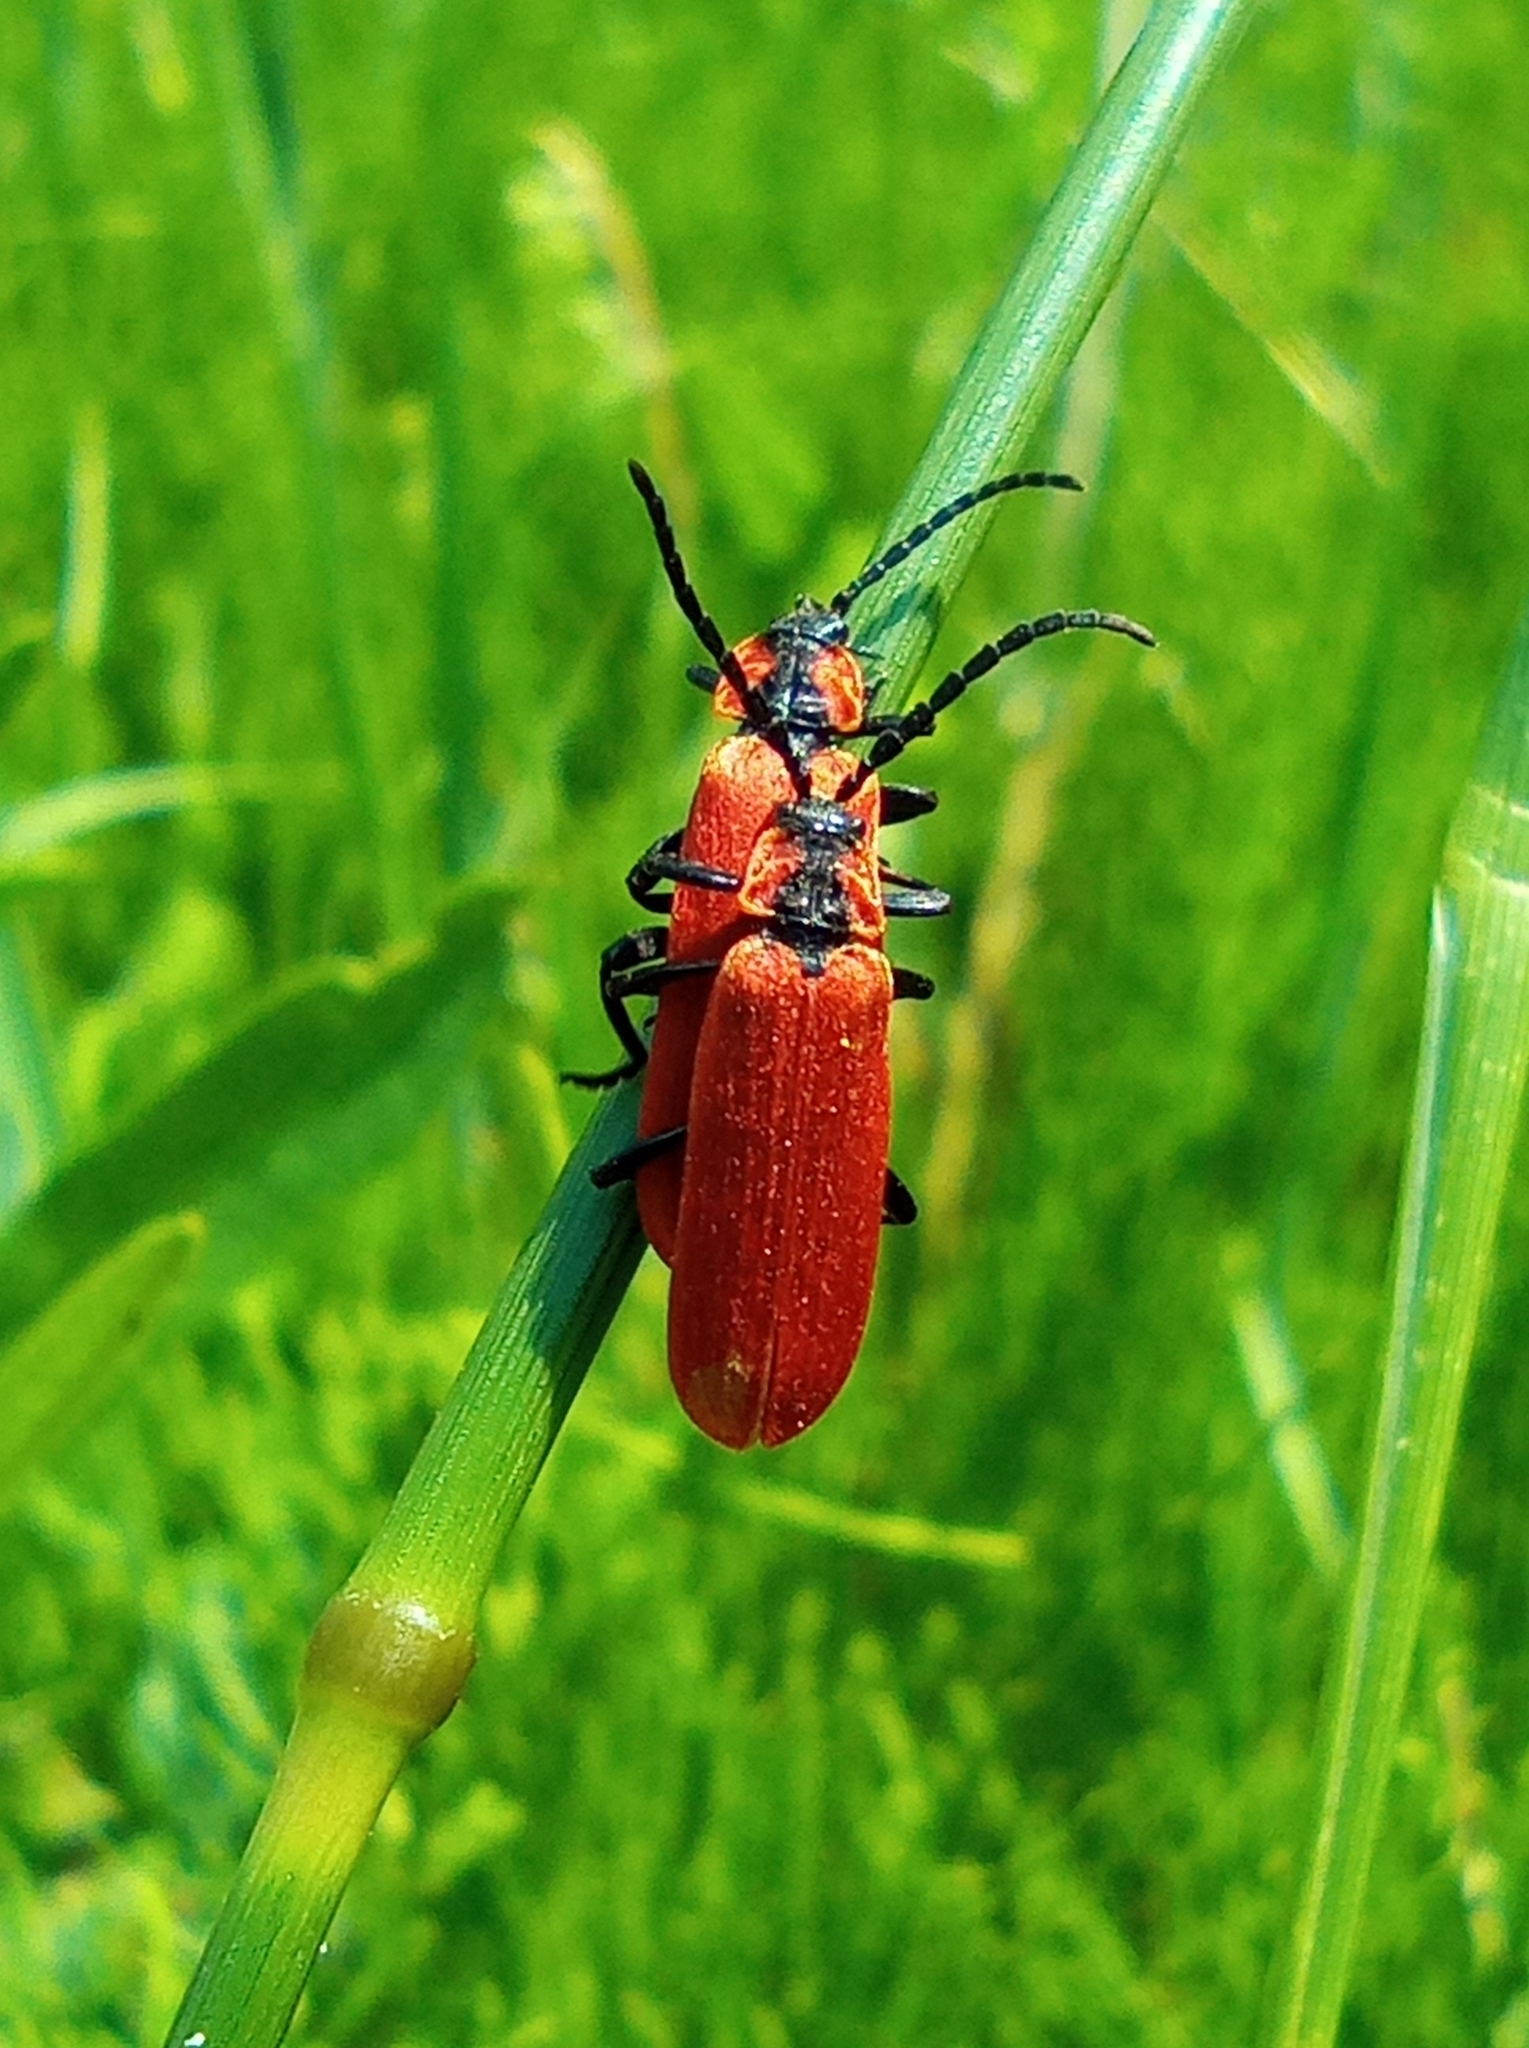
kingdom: Animalia
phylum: Arthropoda
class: Insecta
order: Coleoptera
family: Lycidae
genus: Lygistopterus
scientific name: Lygistopterus sanguineus
